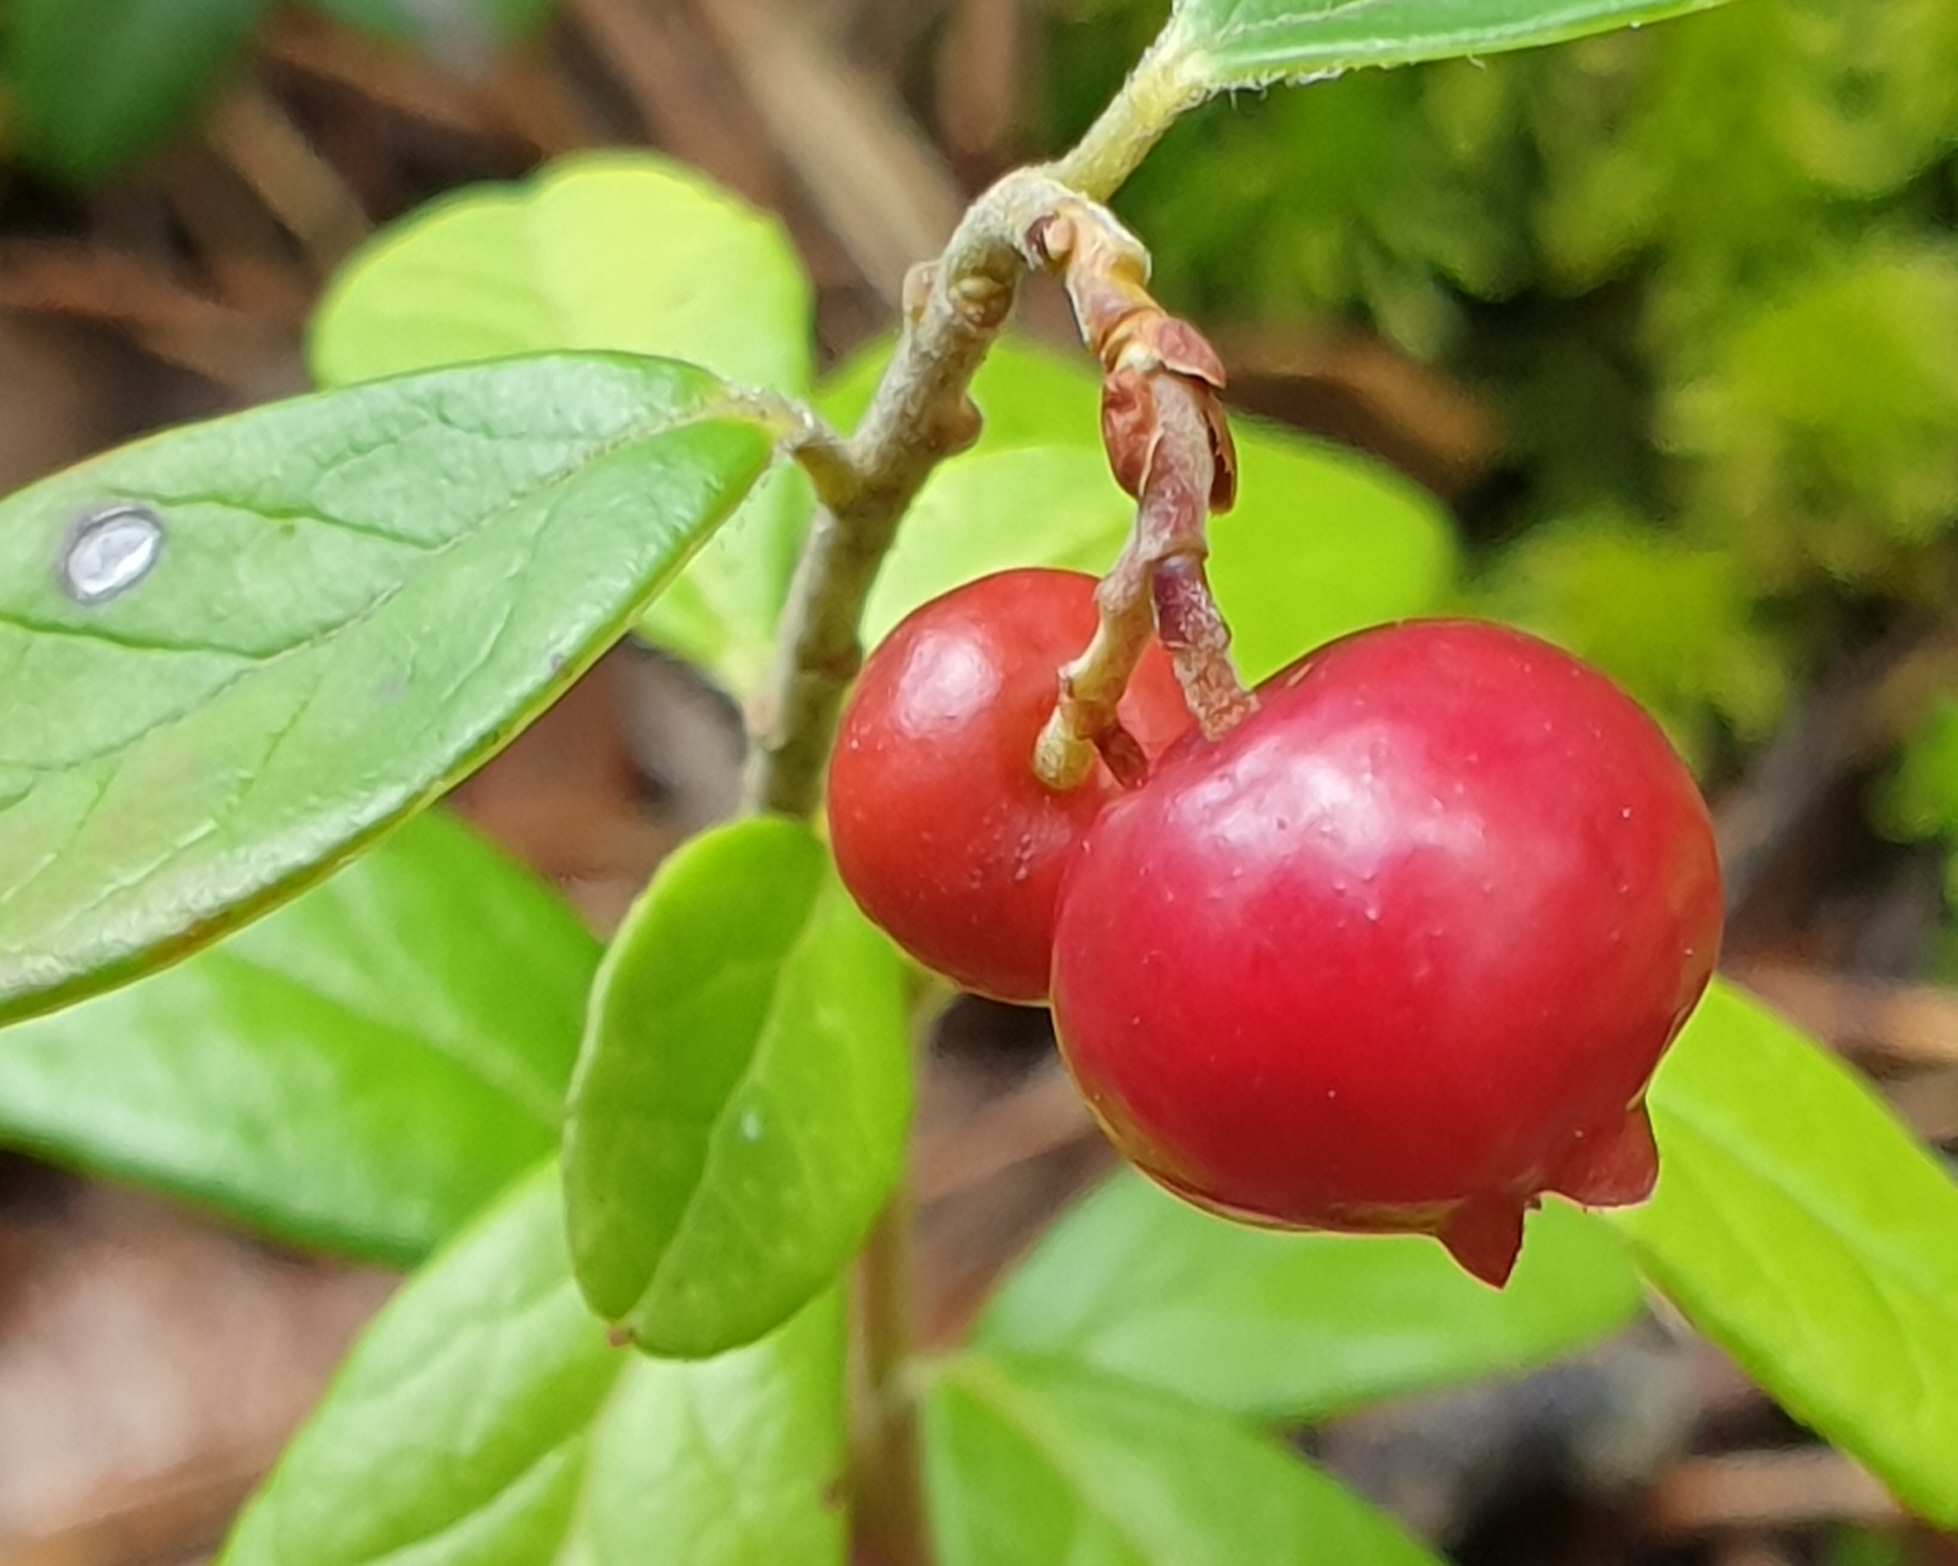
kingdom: Plantae
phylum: Tracheophyta
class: Magnoliopsida
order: Ericales
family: Ericaceae
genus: Vaccinium
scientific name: Vaccinium vitis-idaea
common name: Cowberry
